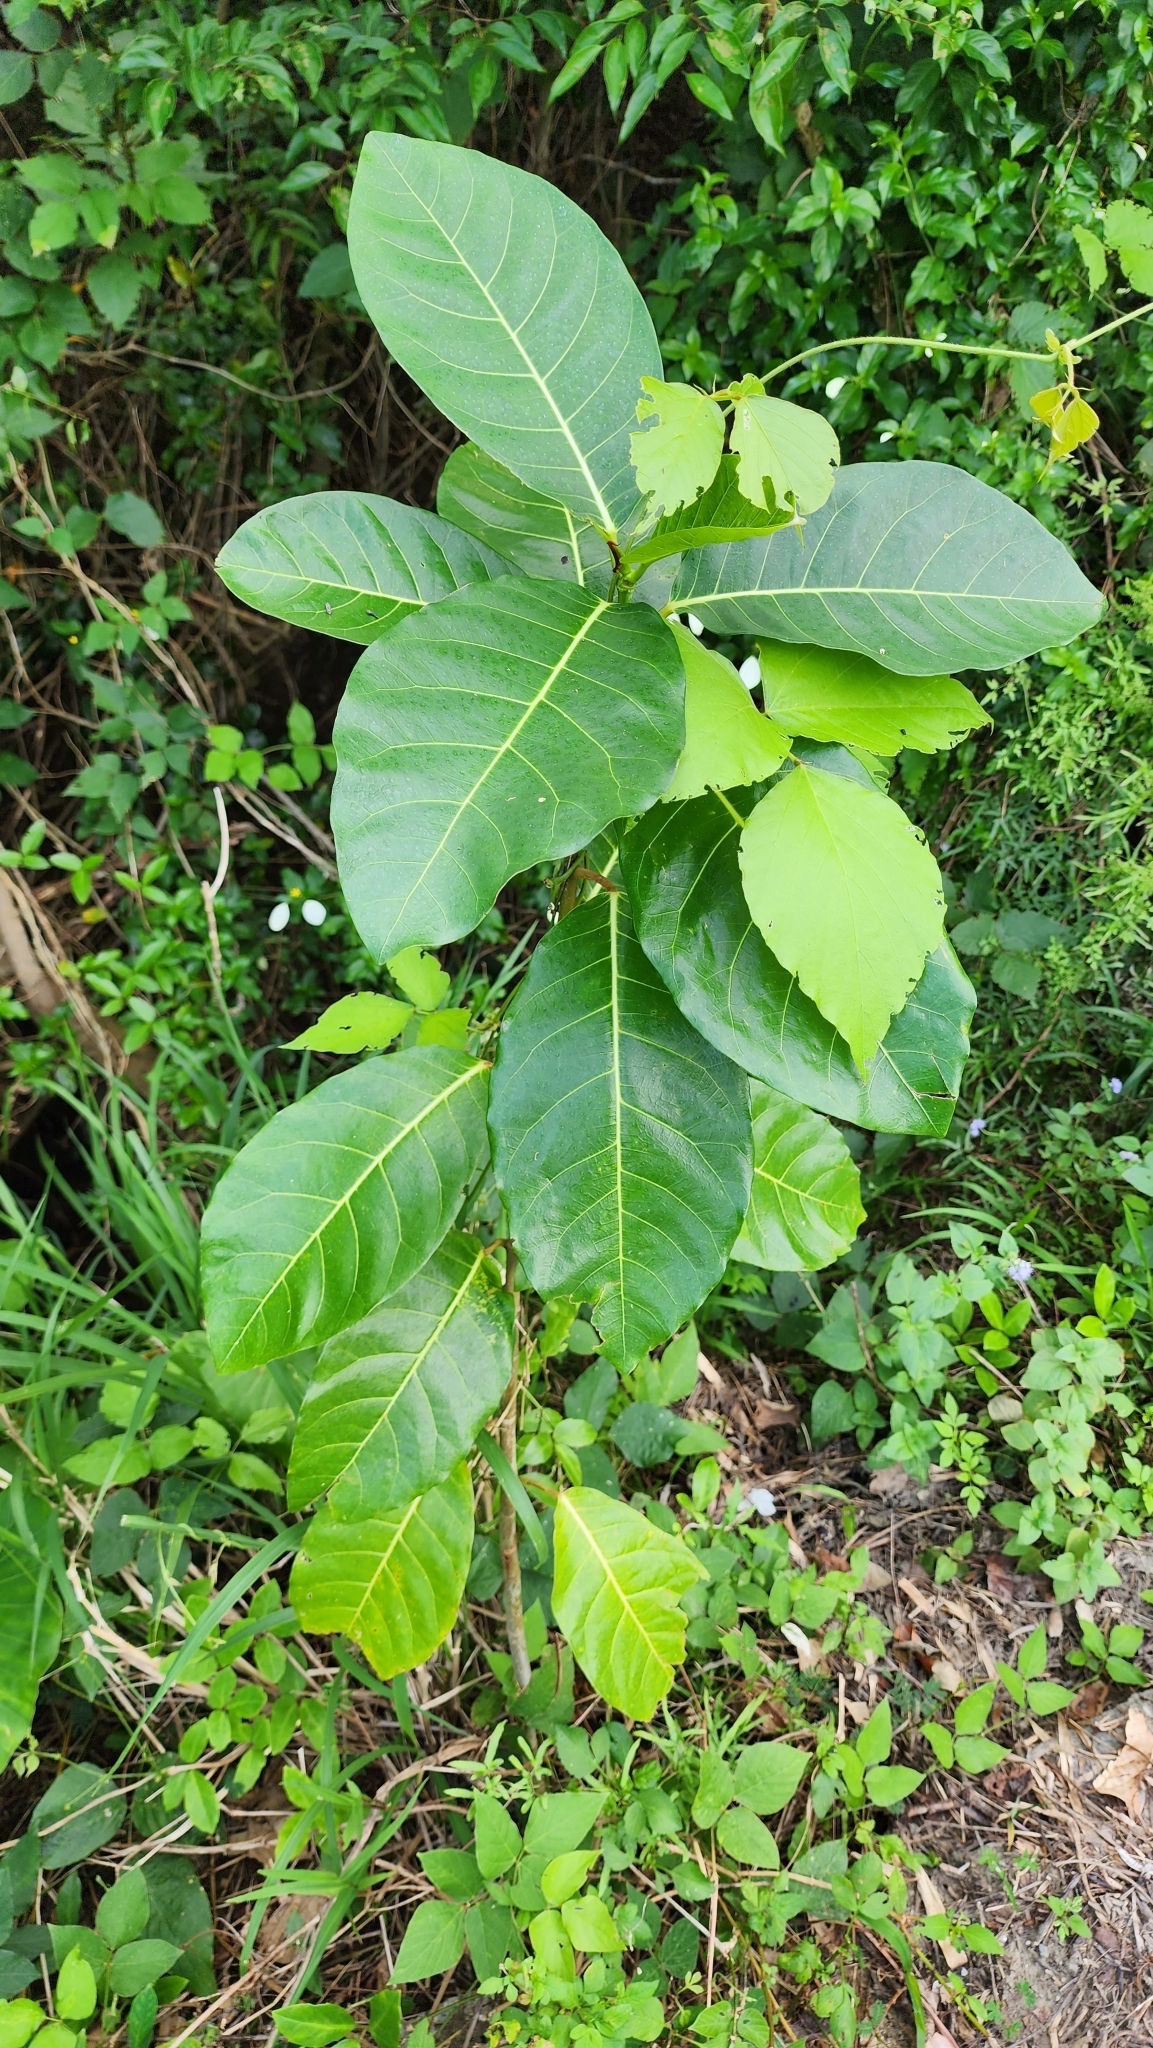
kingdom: Plantae
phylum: Tracheophyta
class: Magnoliopsida
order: Rosales
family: Moraceae
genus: Ficus
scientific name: Ficus septica
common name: Septic fig
